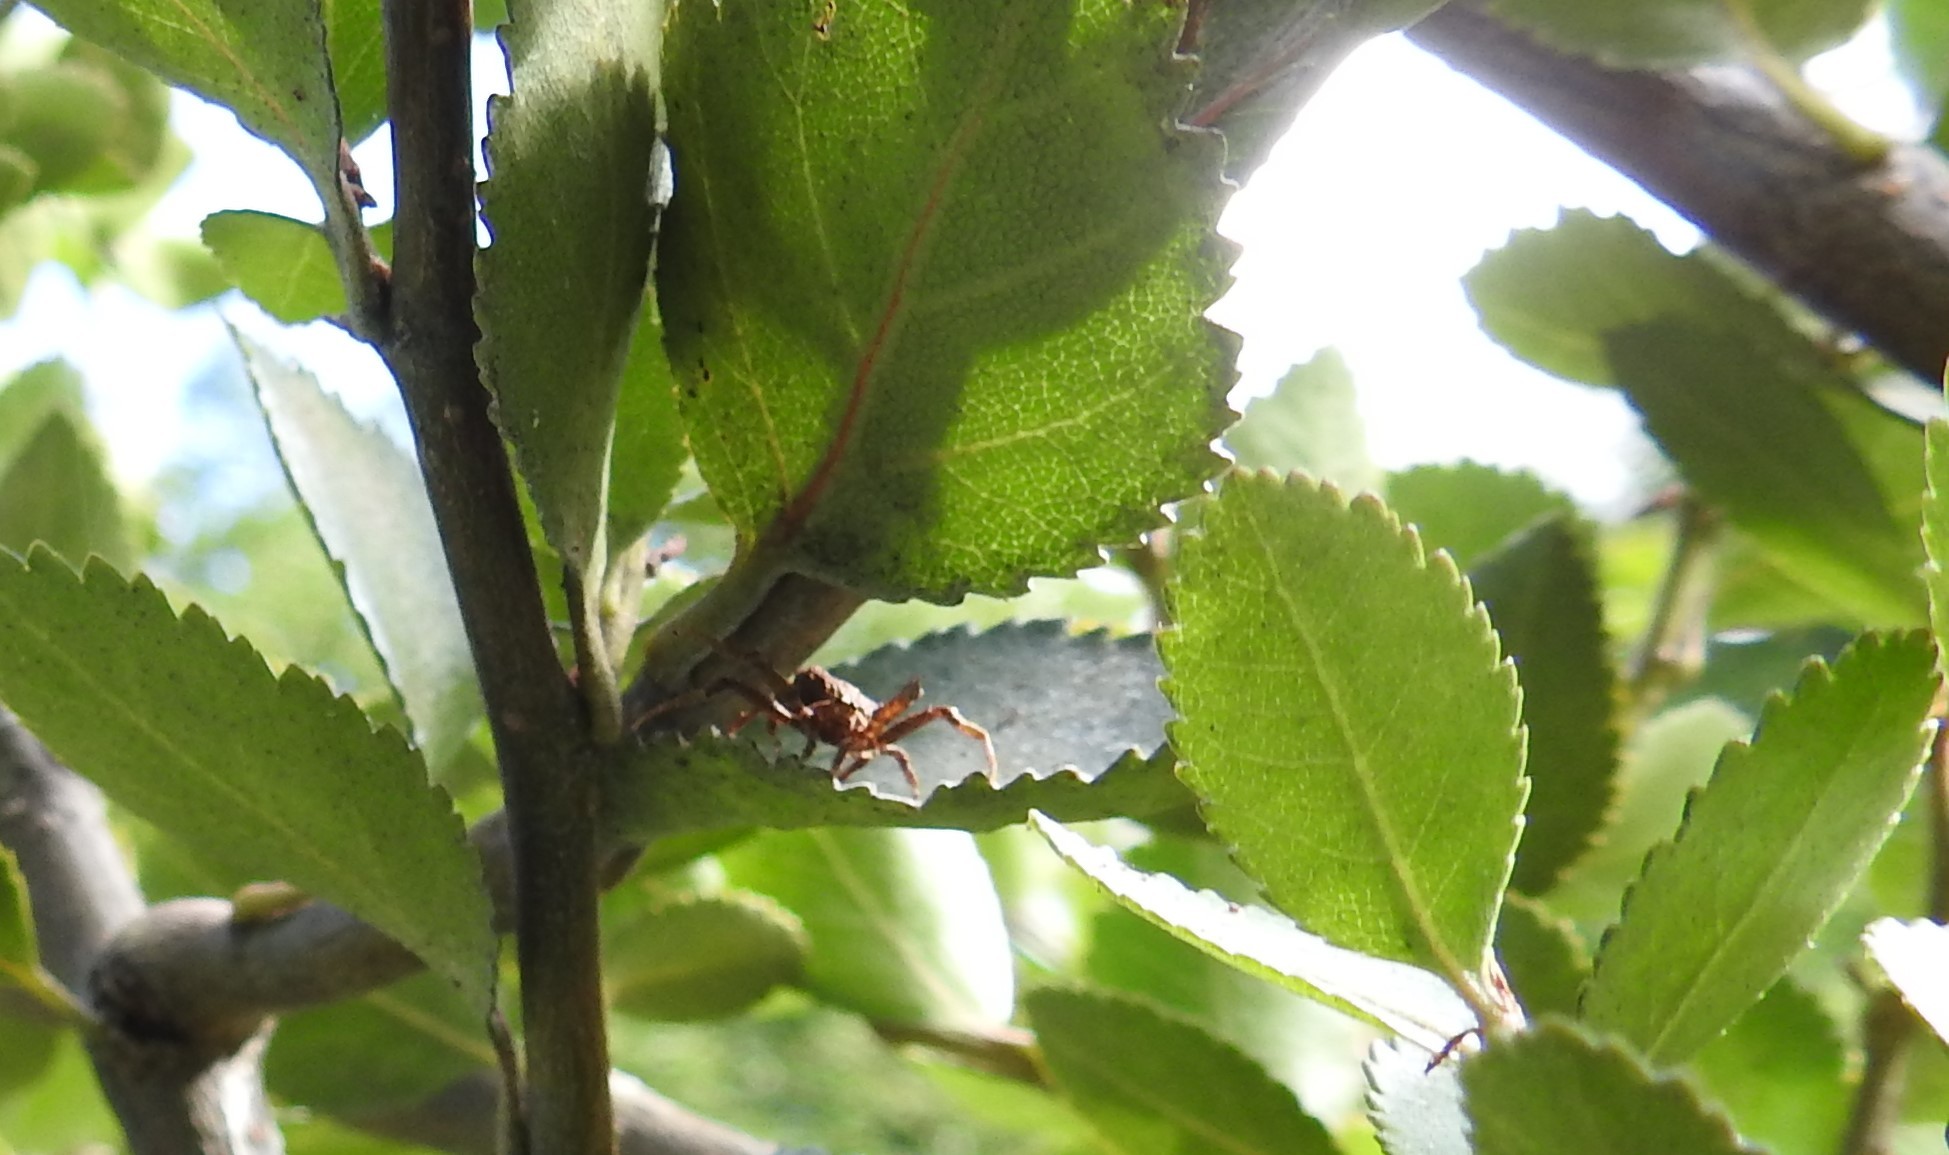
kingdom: Animalia
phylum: Arthropoda
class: Arachnida
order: Araneae
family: Thomisidae
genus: Coenypha
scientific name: Coenypha ditissima
